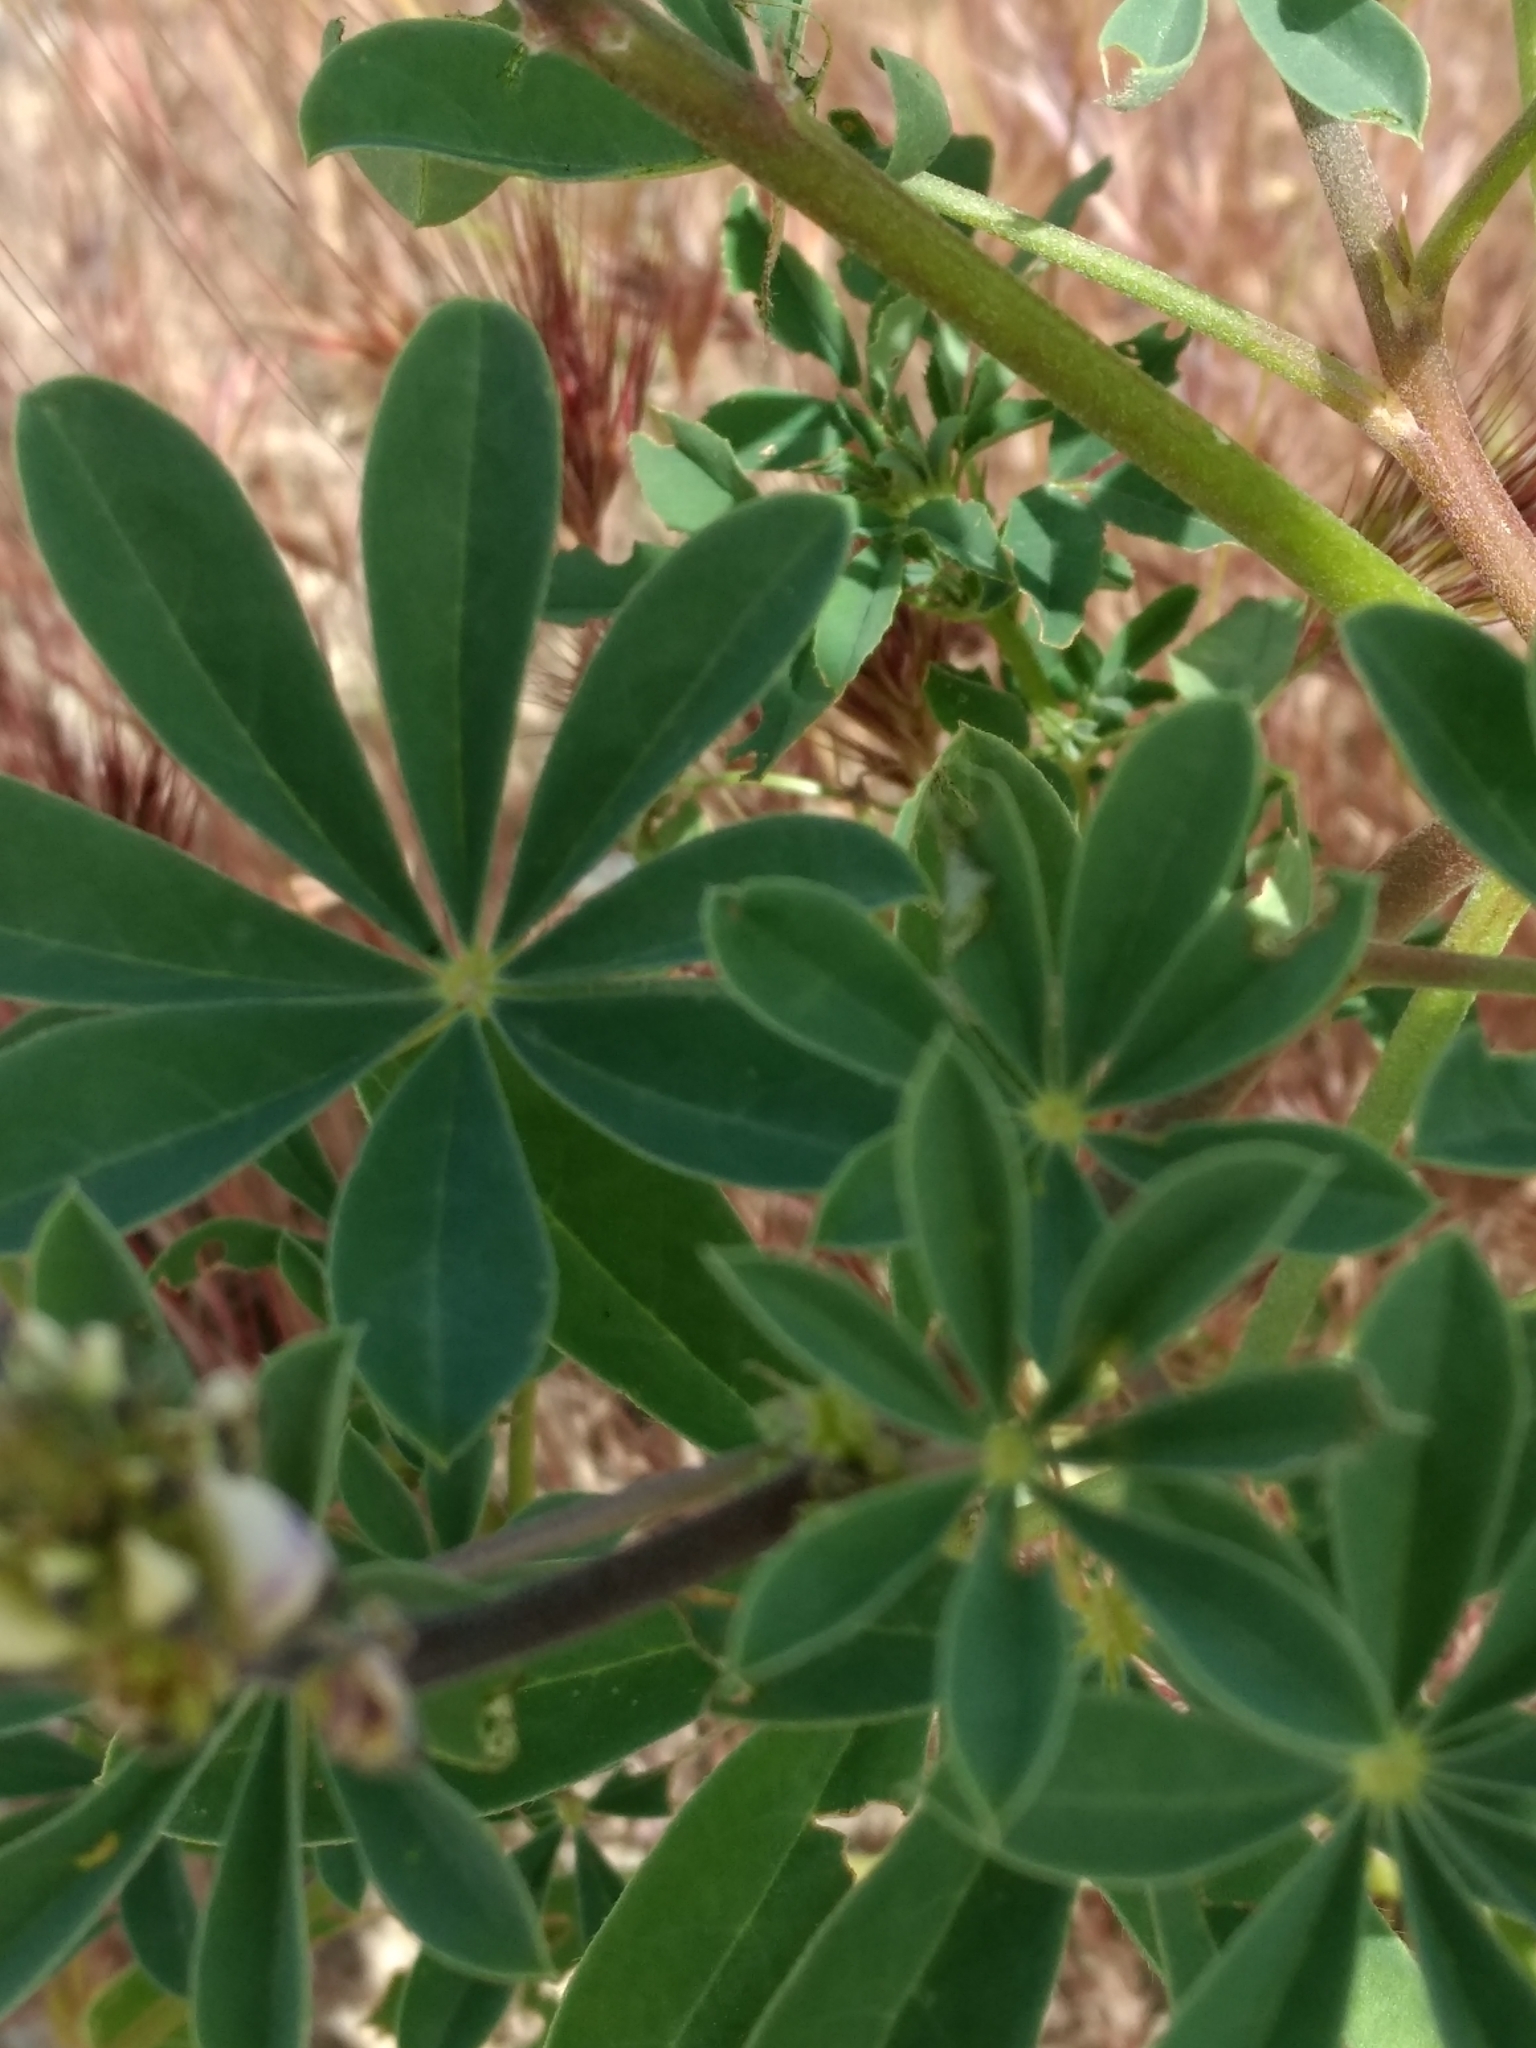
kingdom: Plantae
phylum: Tracheophyta
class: Magnoliopsida
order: Fabales
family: Fabaceae
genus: Lupinus
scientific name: Lupinus succulentus
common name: Arroyo lupine
